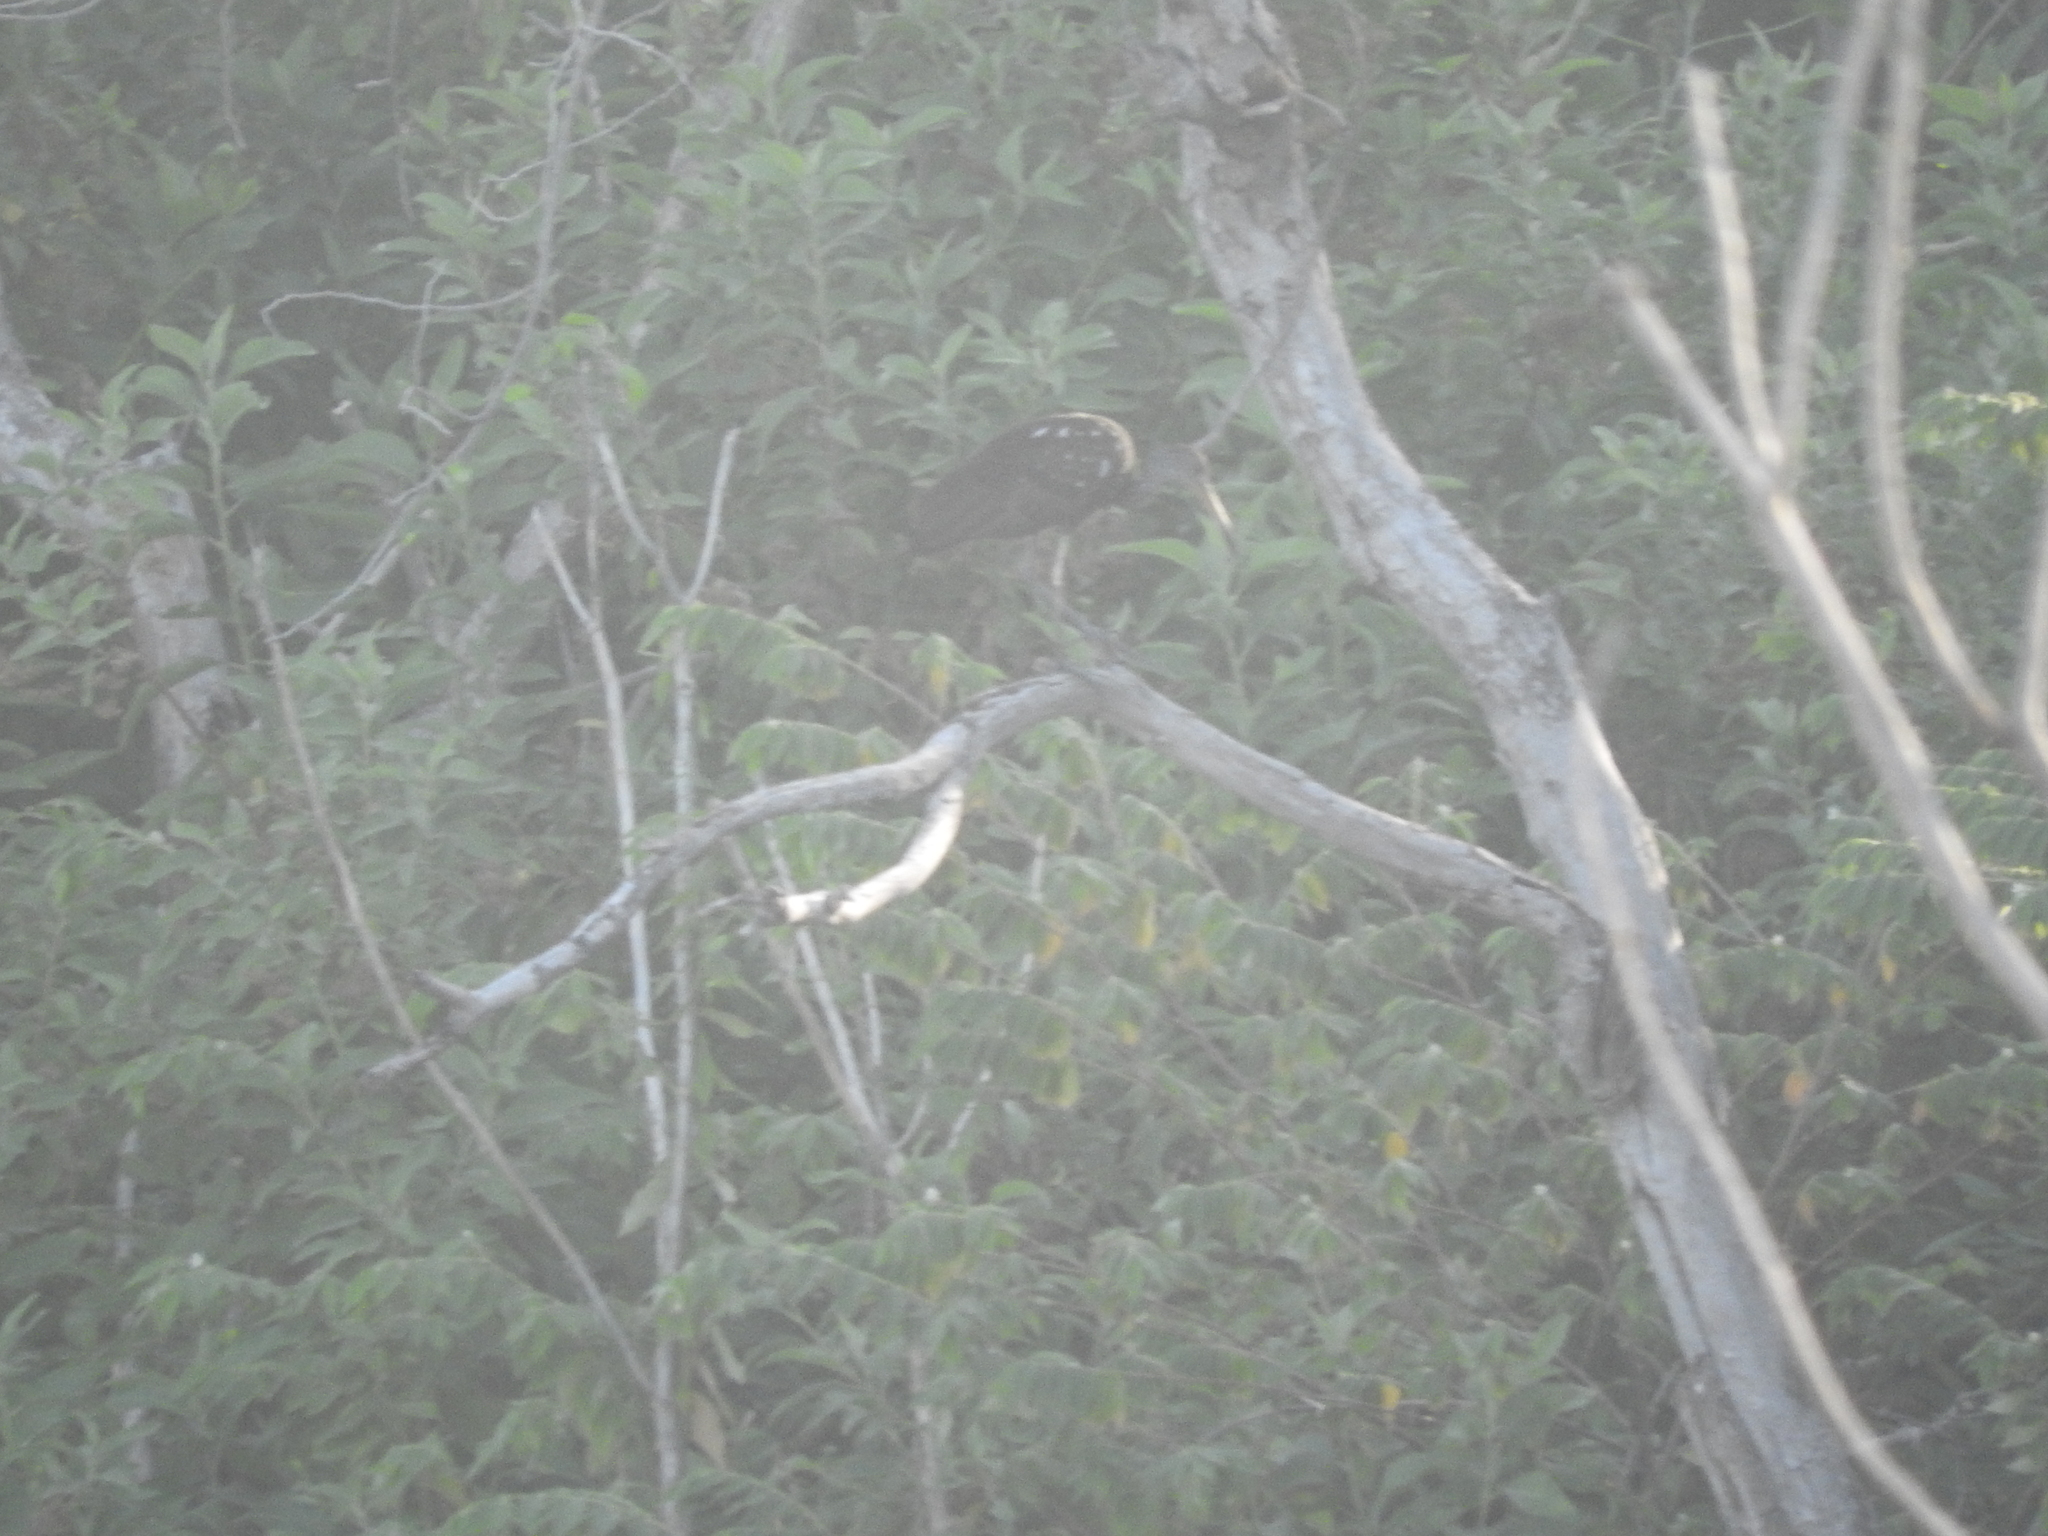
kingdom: Animalia
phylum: Chordata
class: Aves
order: Gruiformes
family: Aramidae
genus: Aramus
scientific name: Aramus guarauna
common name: Limpkin
